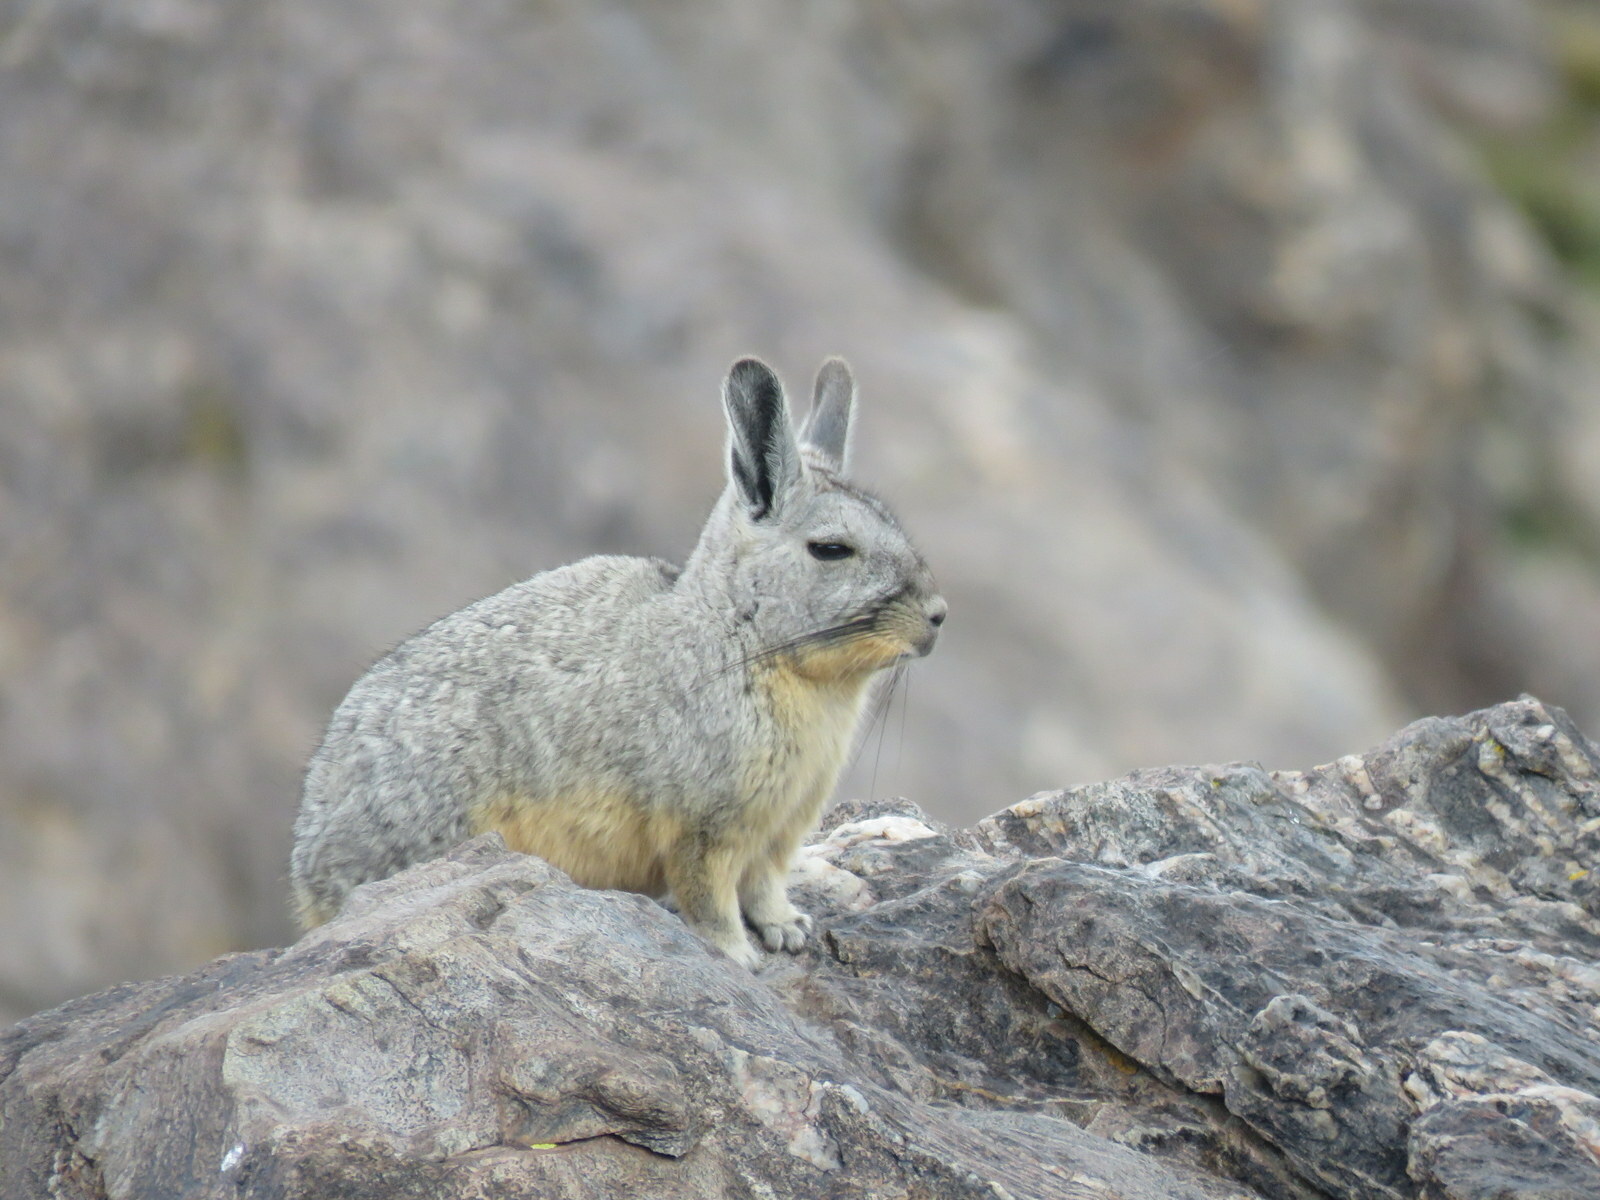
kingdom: Animalia
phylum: Chordata
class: Mammalia
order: Rodentia
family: Chinchillidae
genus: Lagidium
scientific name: Lagidium viscacia
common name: Southern viscacha
